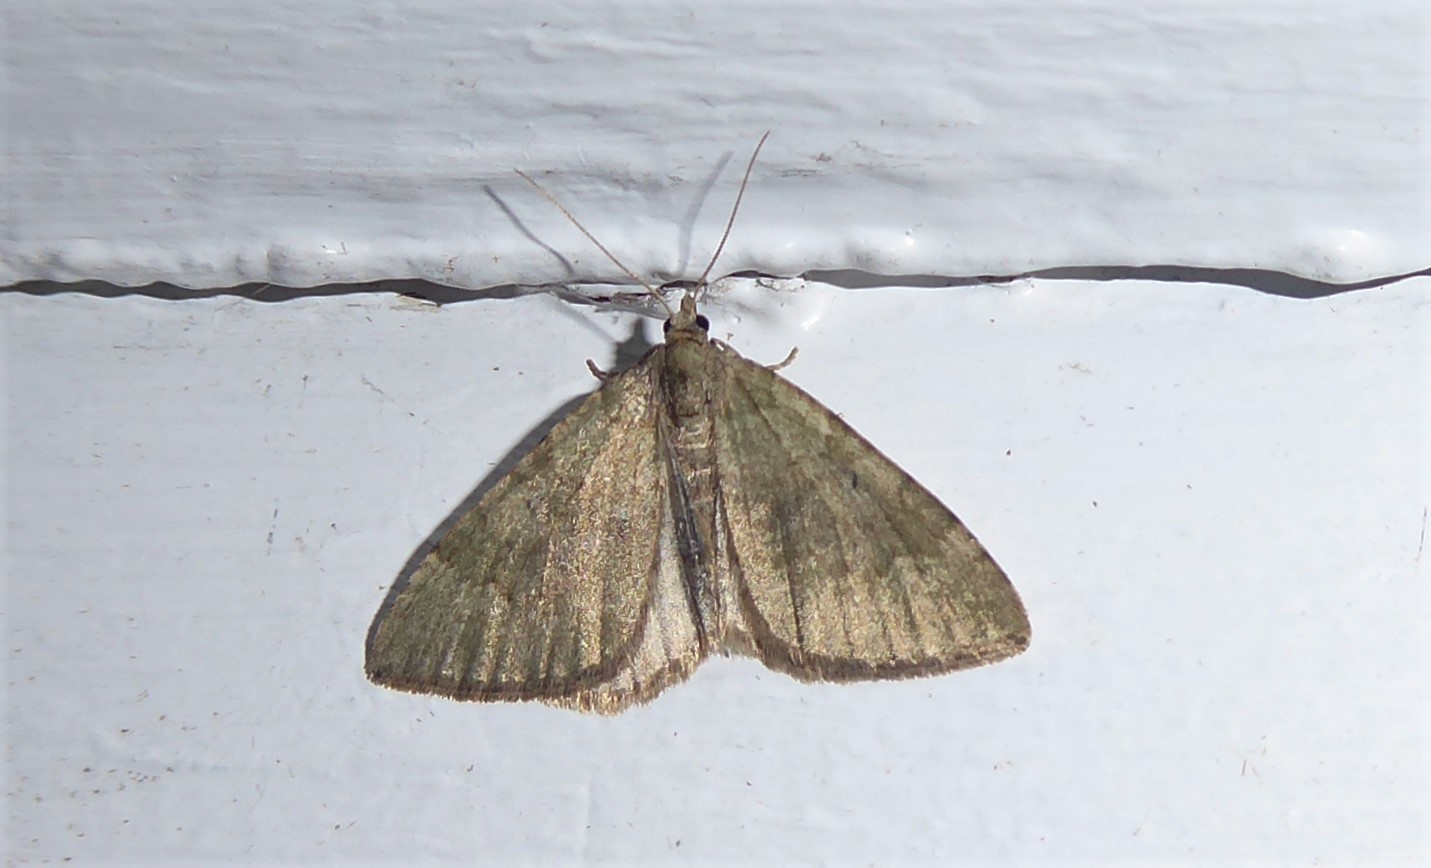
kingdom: Animalia
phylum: Arthropoda
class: Insecta
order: Lepidoptera
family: Geometridae
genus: Epyaxa
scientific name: Epyaxa rosearia
